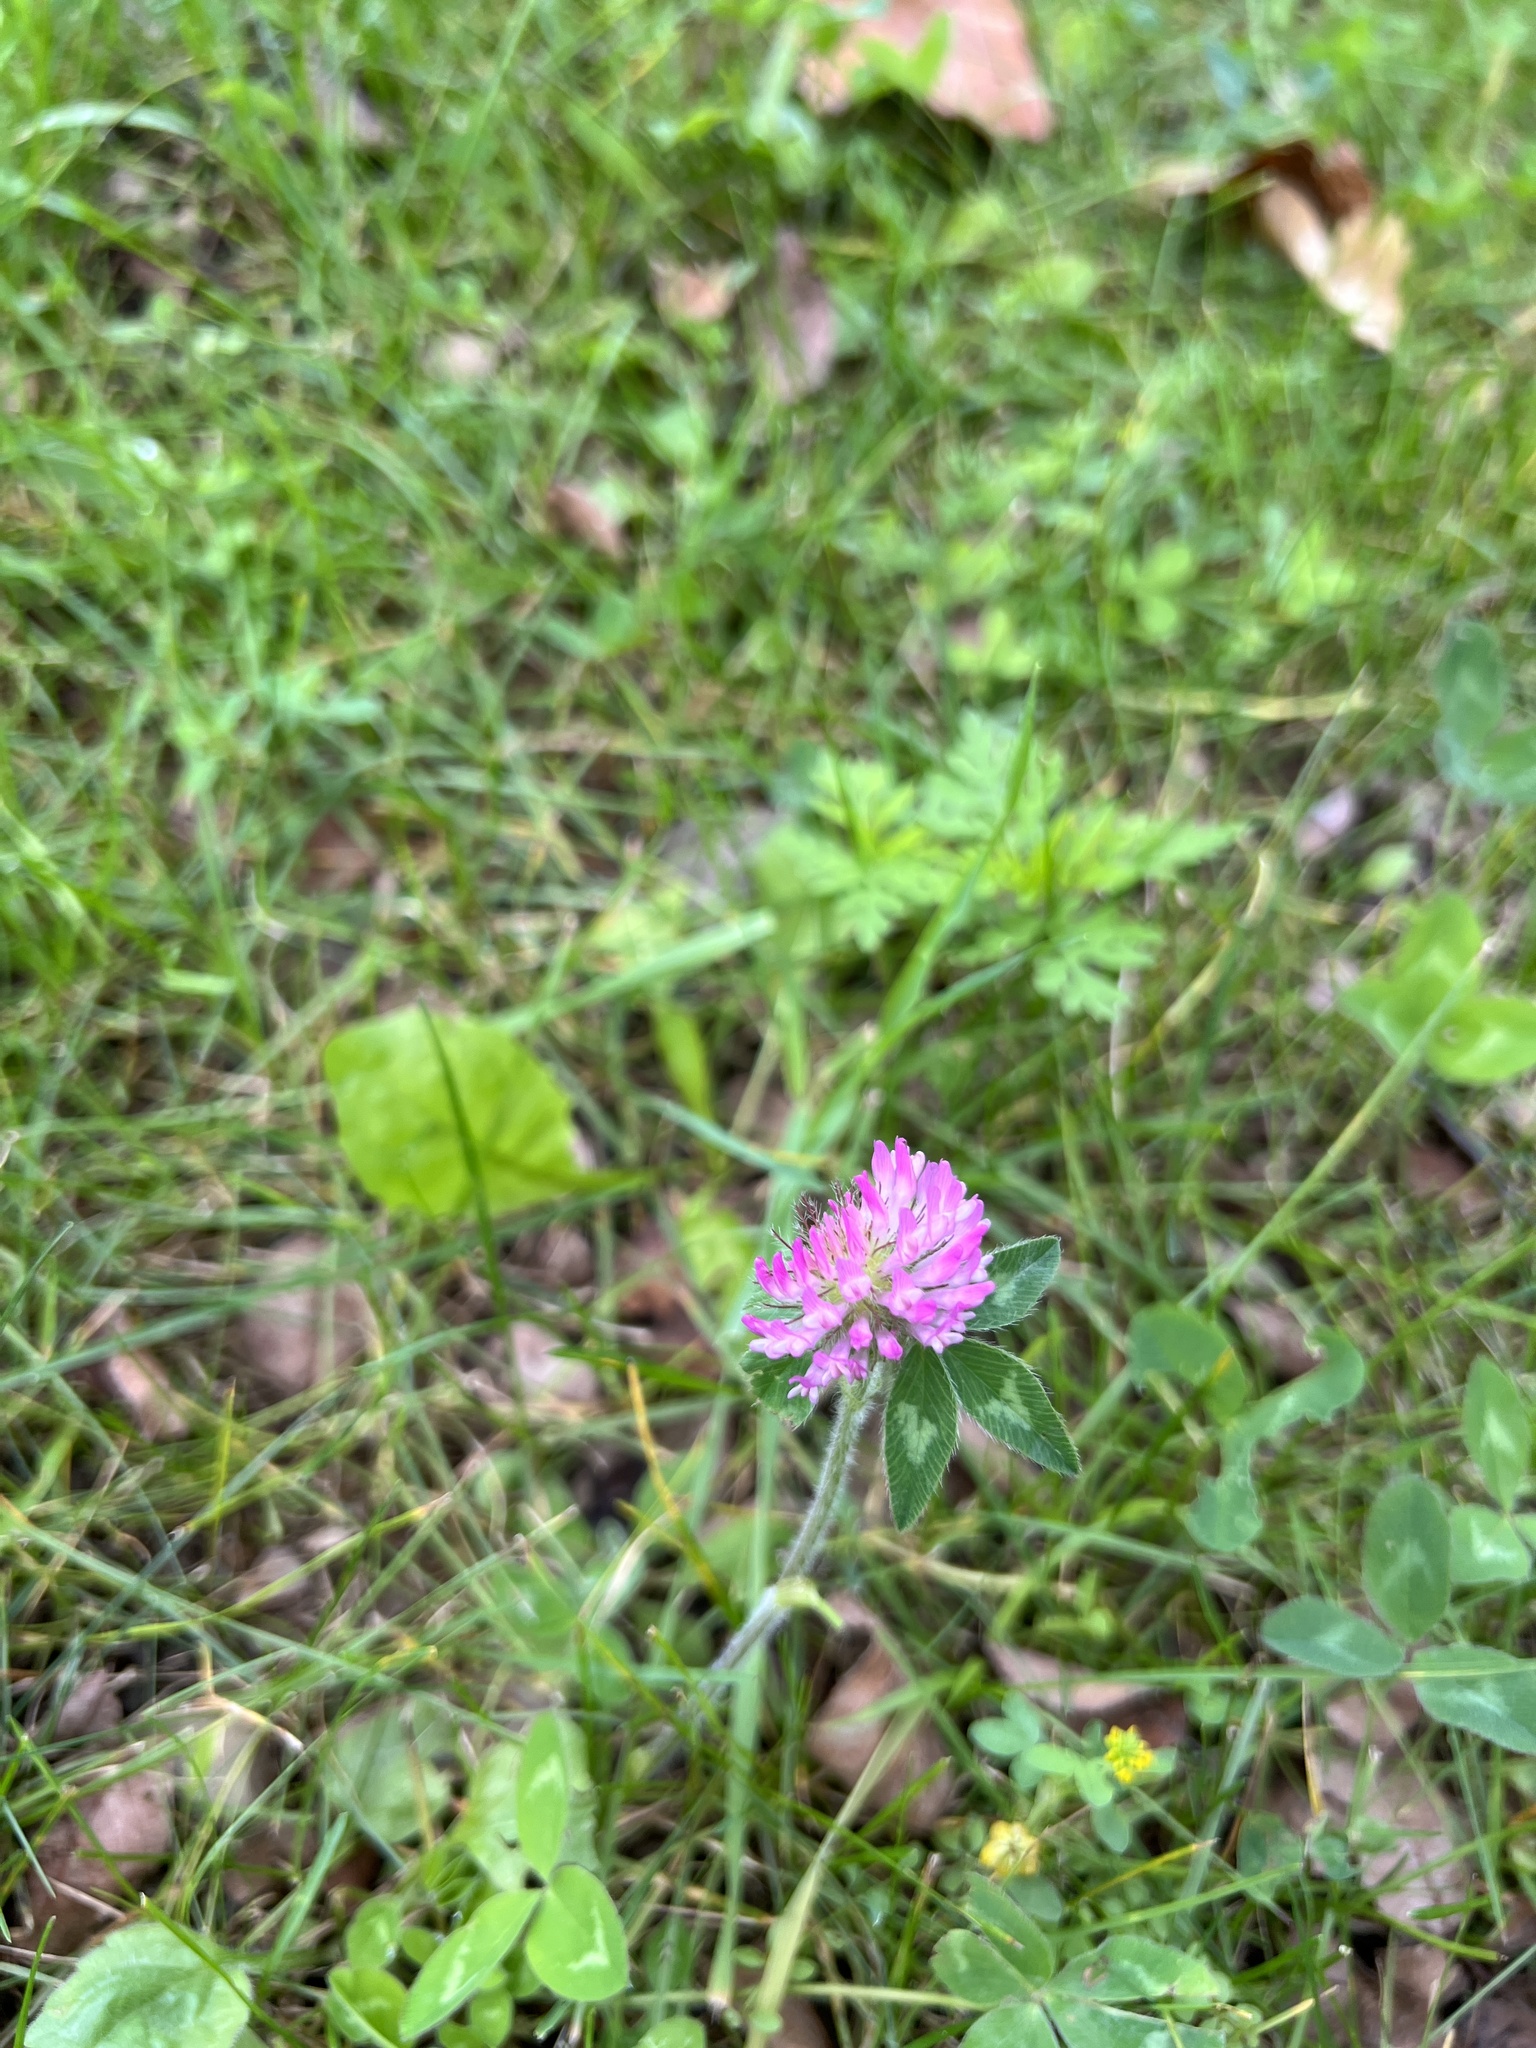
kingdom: Plantae
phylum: Tracheophyta
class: Magnoliopsida
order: Fabales
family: Fabaceae
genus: Trifolium
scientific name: Trifolium pratense
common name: Red clover
